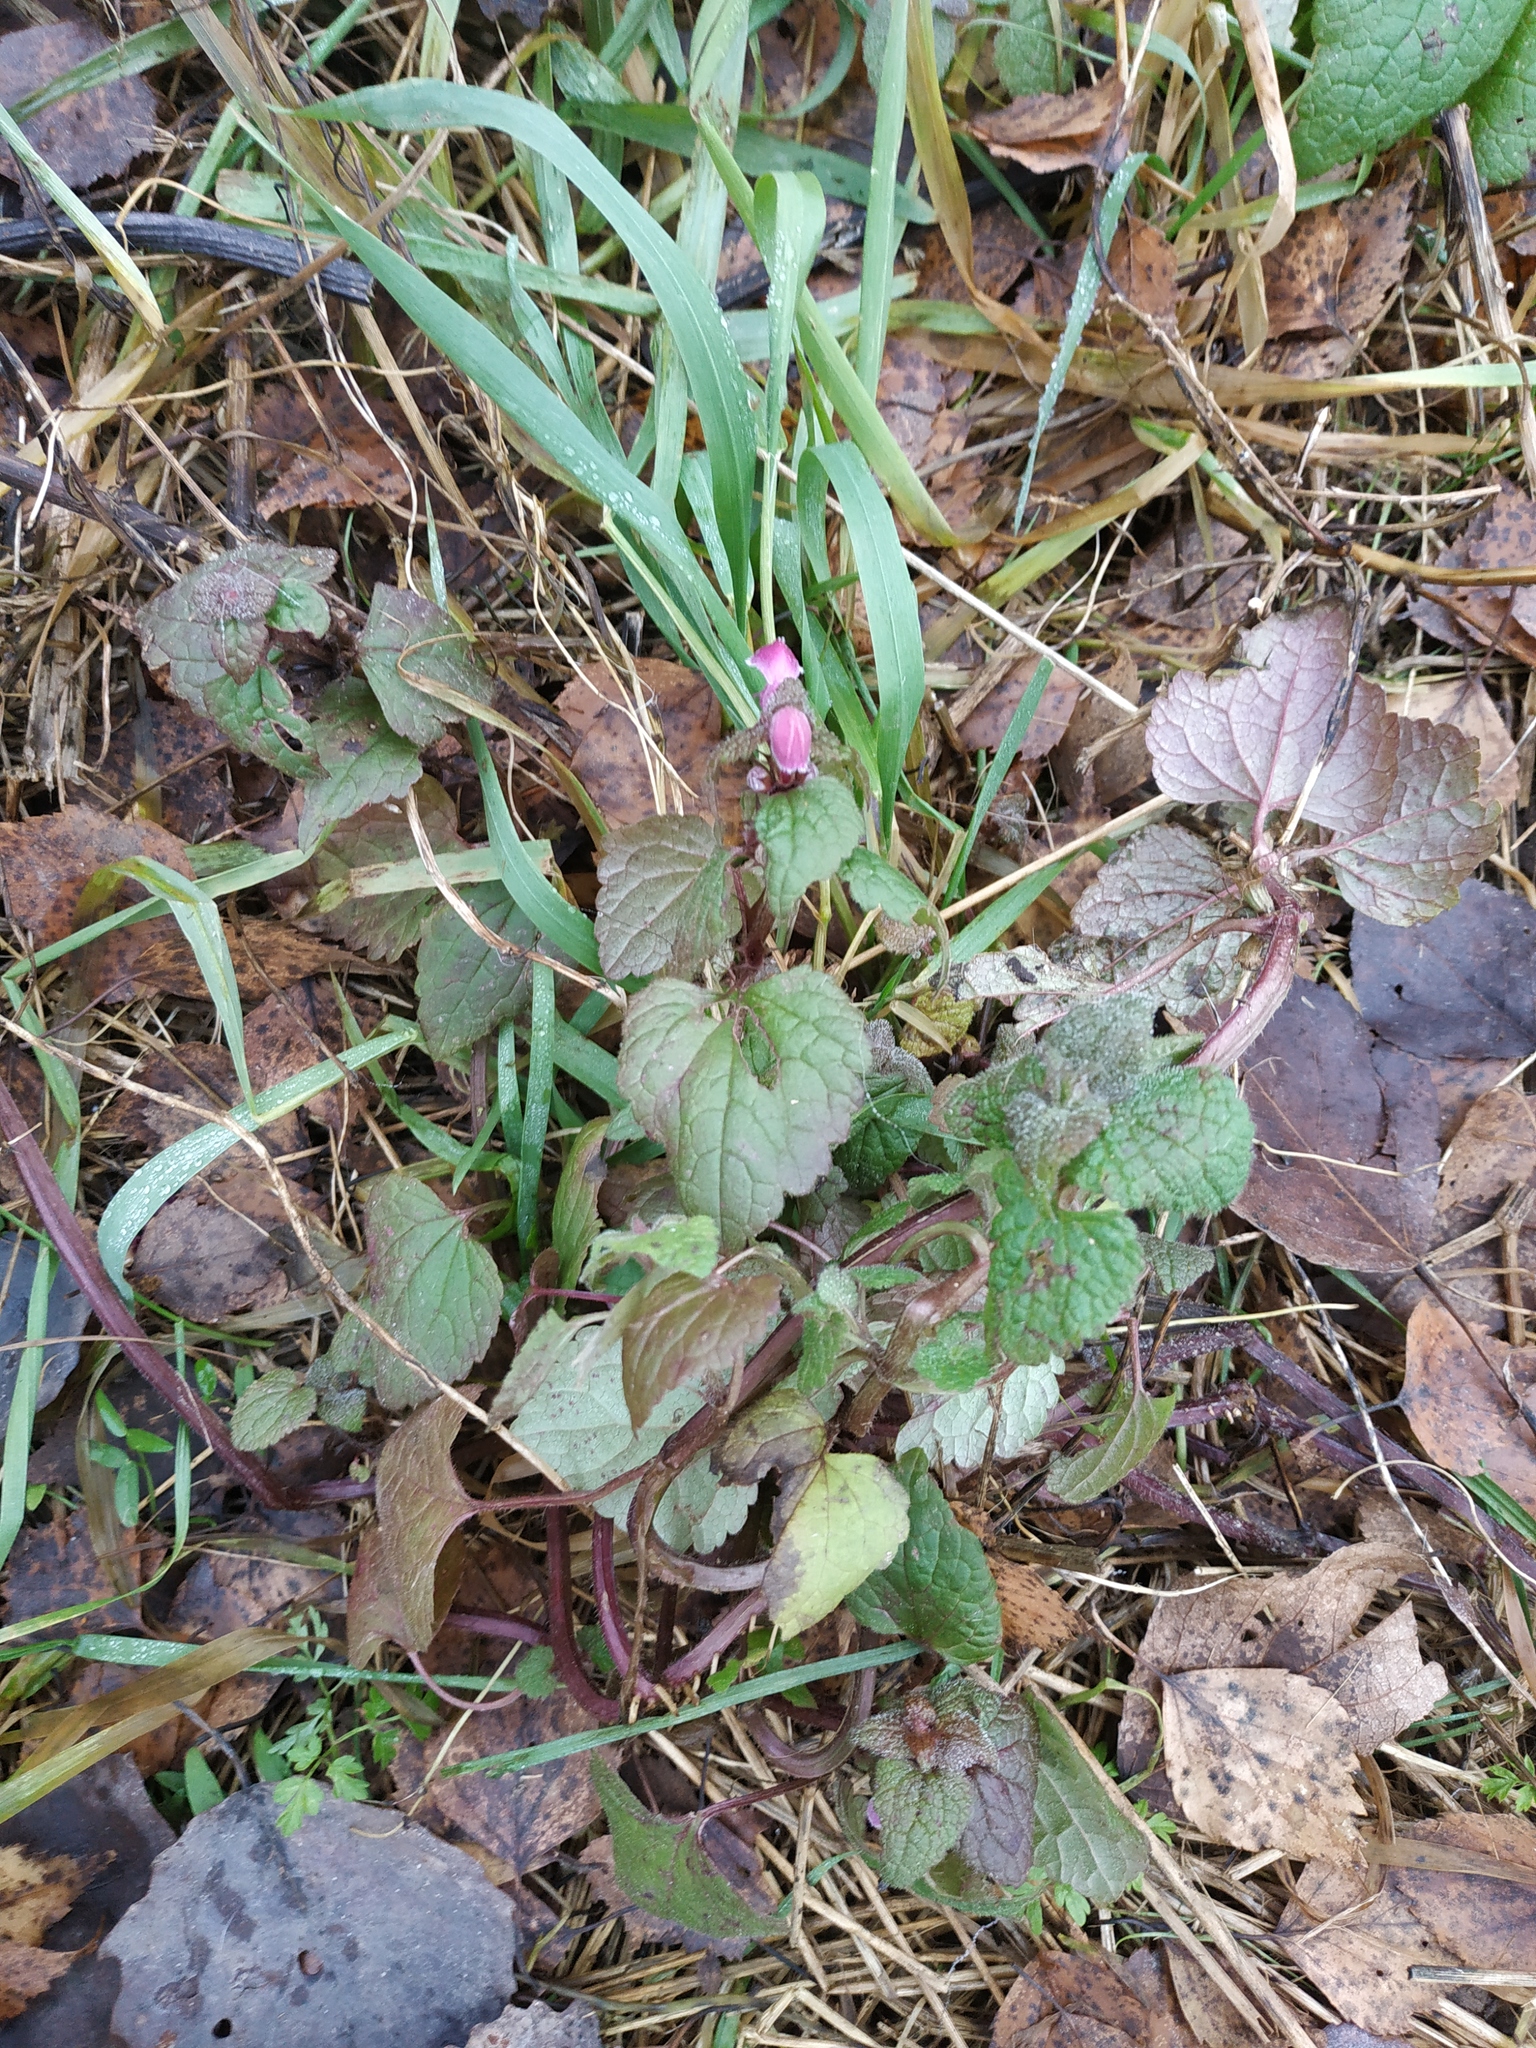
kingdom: Plantae
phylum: Tracheophyta
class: Magnoliopsida
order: Lamiales
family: Lamiaceae
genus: Lamium
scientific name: Lamium maculatum
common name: Spotted dead-nettle
